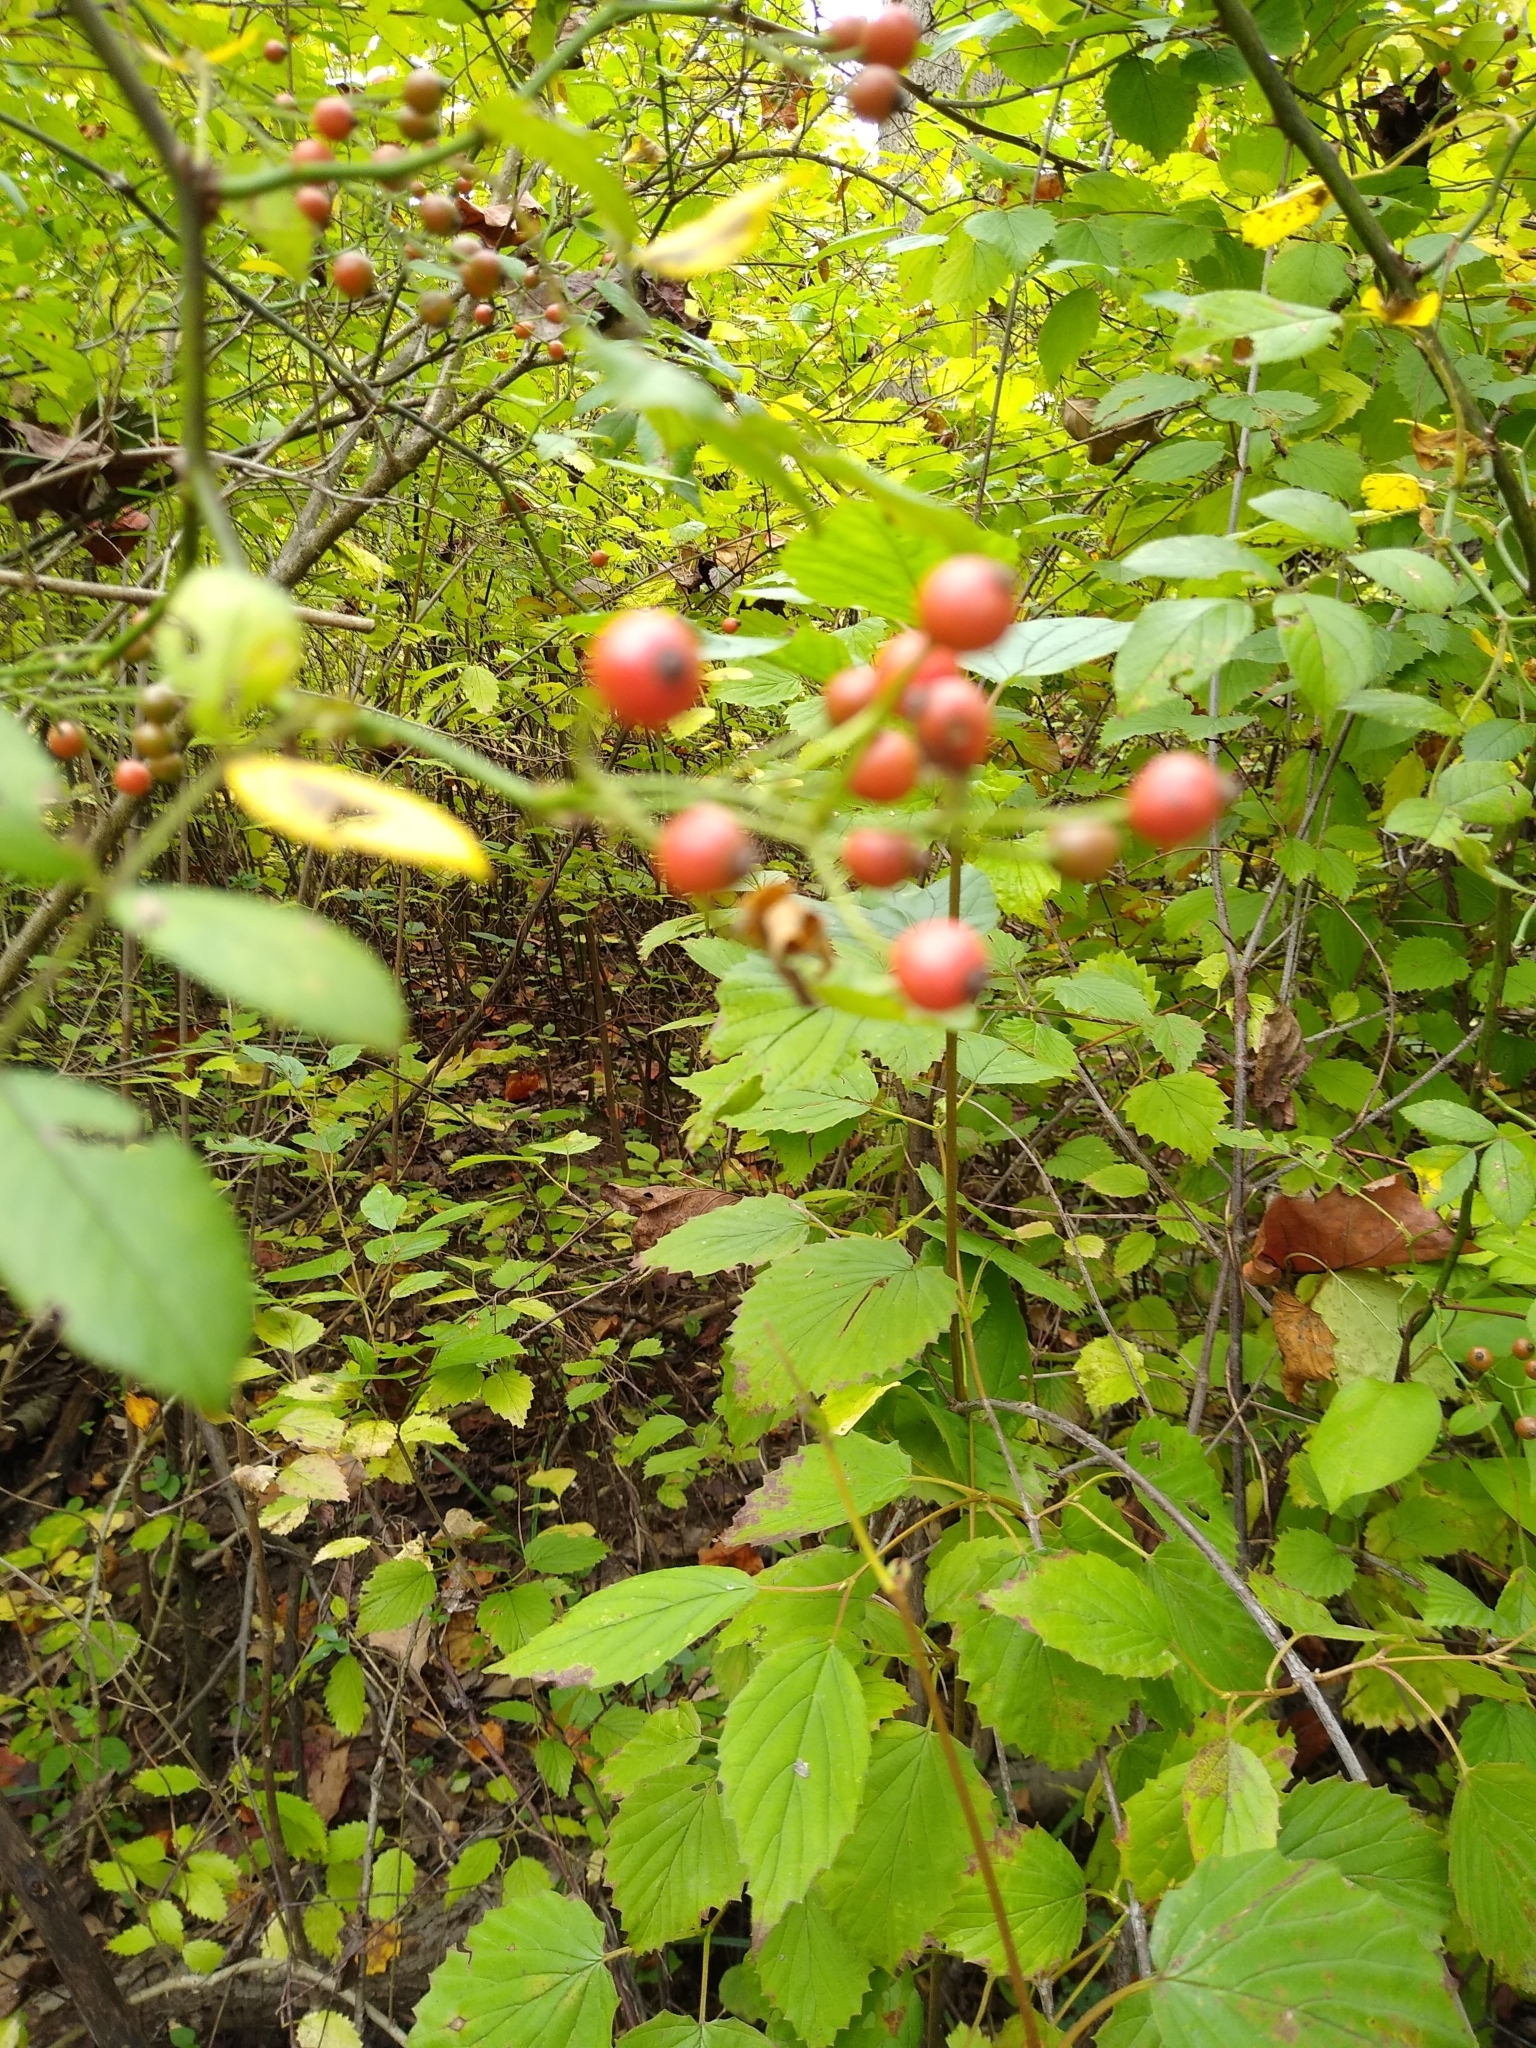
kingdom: Plantae
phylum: Tracheophyta
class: Magnoliopsida
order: Rosales
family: Rosaceae
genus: Rosa
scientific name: Rosa multiflora
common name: Multiflora rose
